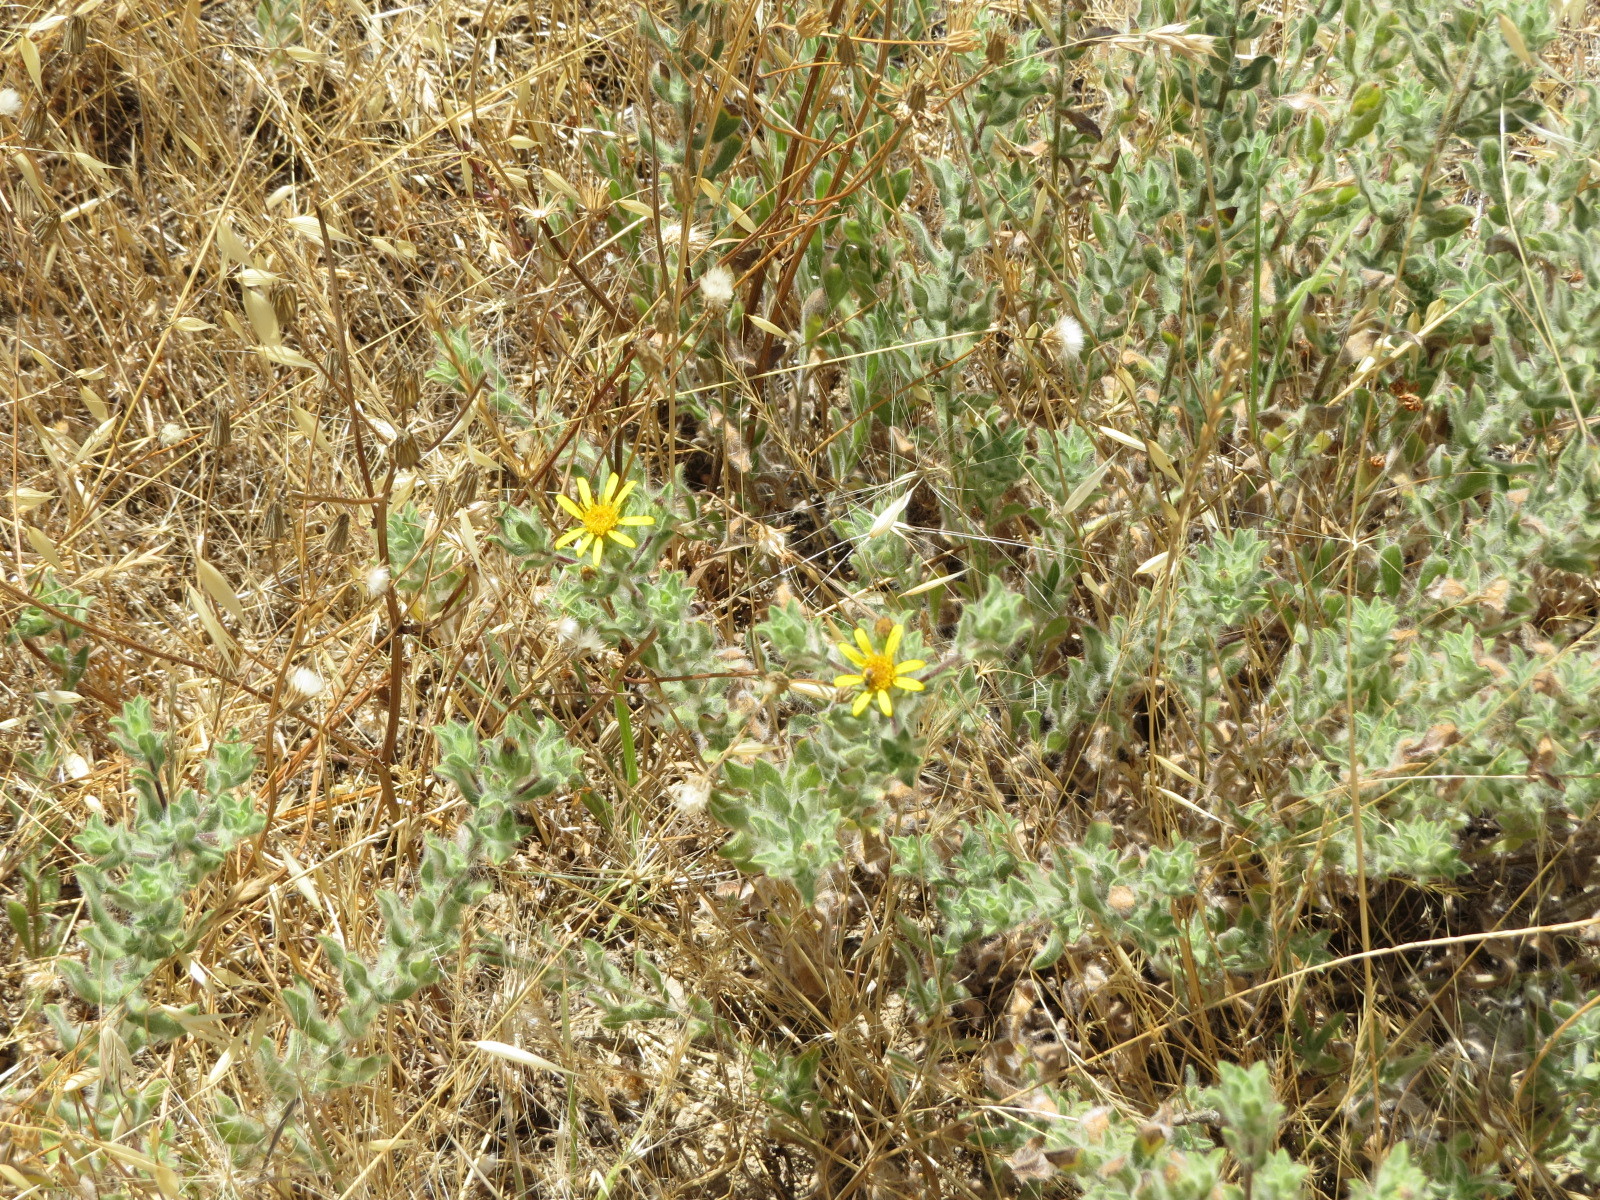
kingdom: Plantae
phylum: Tracheophyta
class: Magnoliopsida
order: Asterales
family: Asteraceae
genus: Heterotheca
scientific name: Heterotheca sessiliflora
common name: Sessile-flower golden-aster
